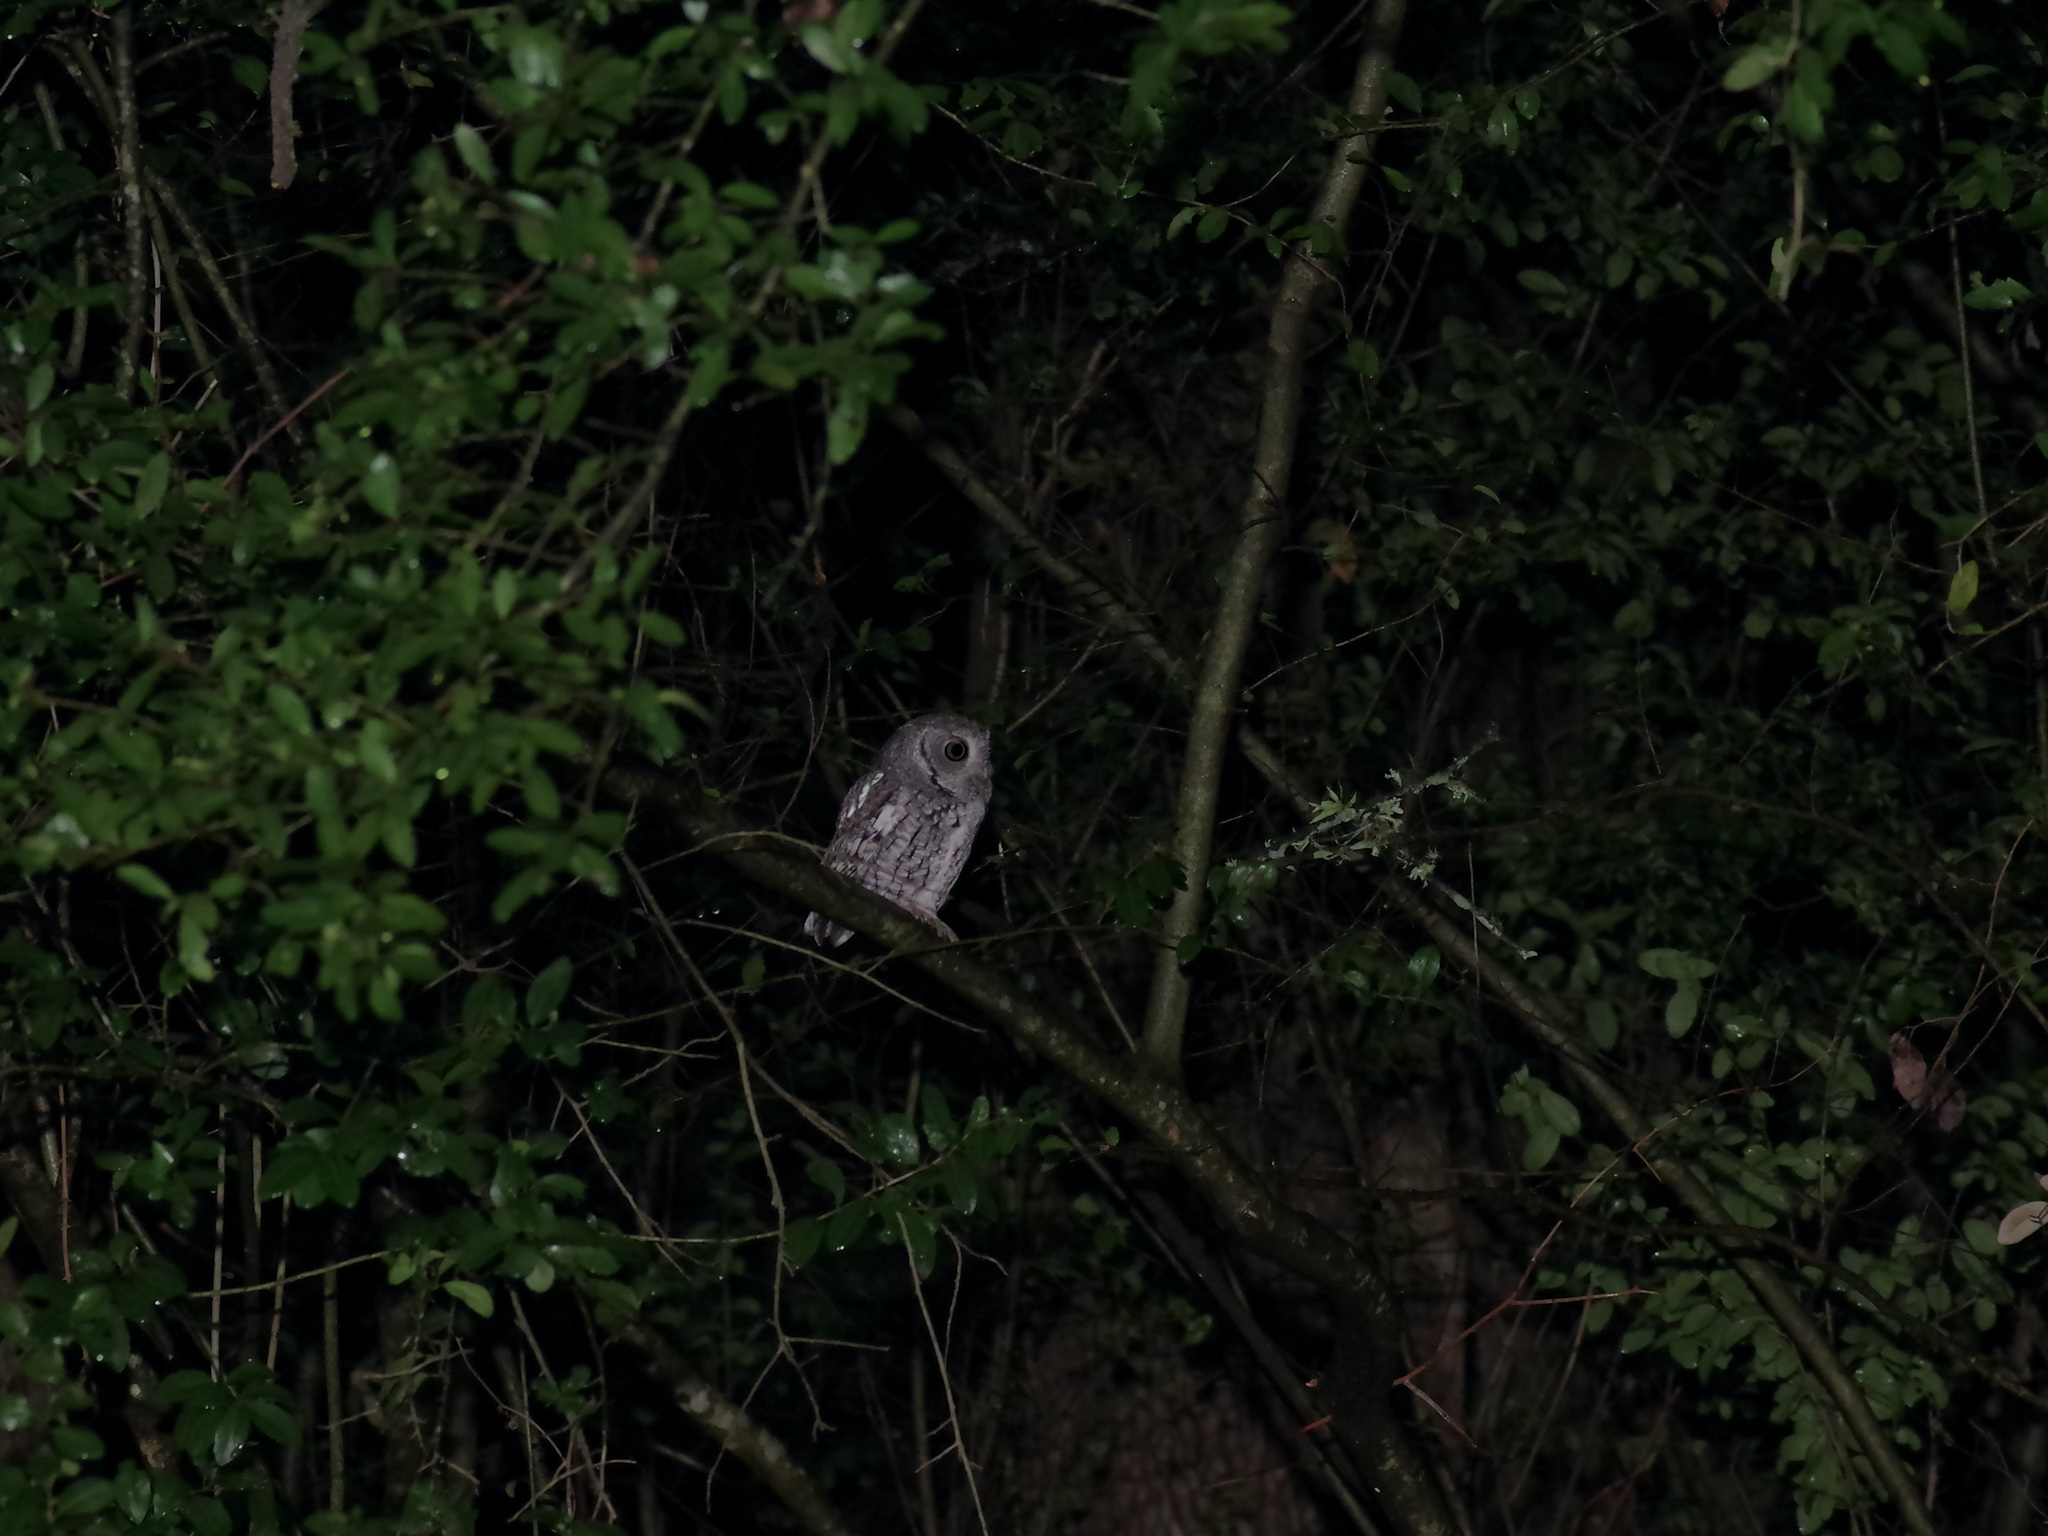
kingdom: Animalia
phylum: Chordata
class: Aves
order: Strigiformes
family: Strigidae
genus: Megascops
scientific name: Megascops asio
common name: Eastern screech-owl
